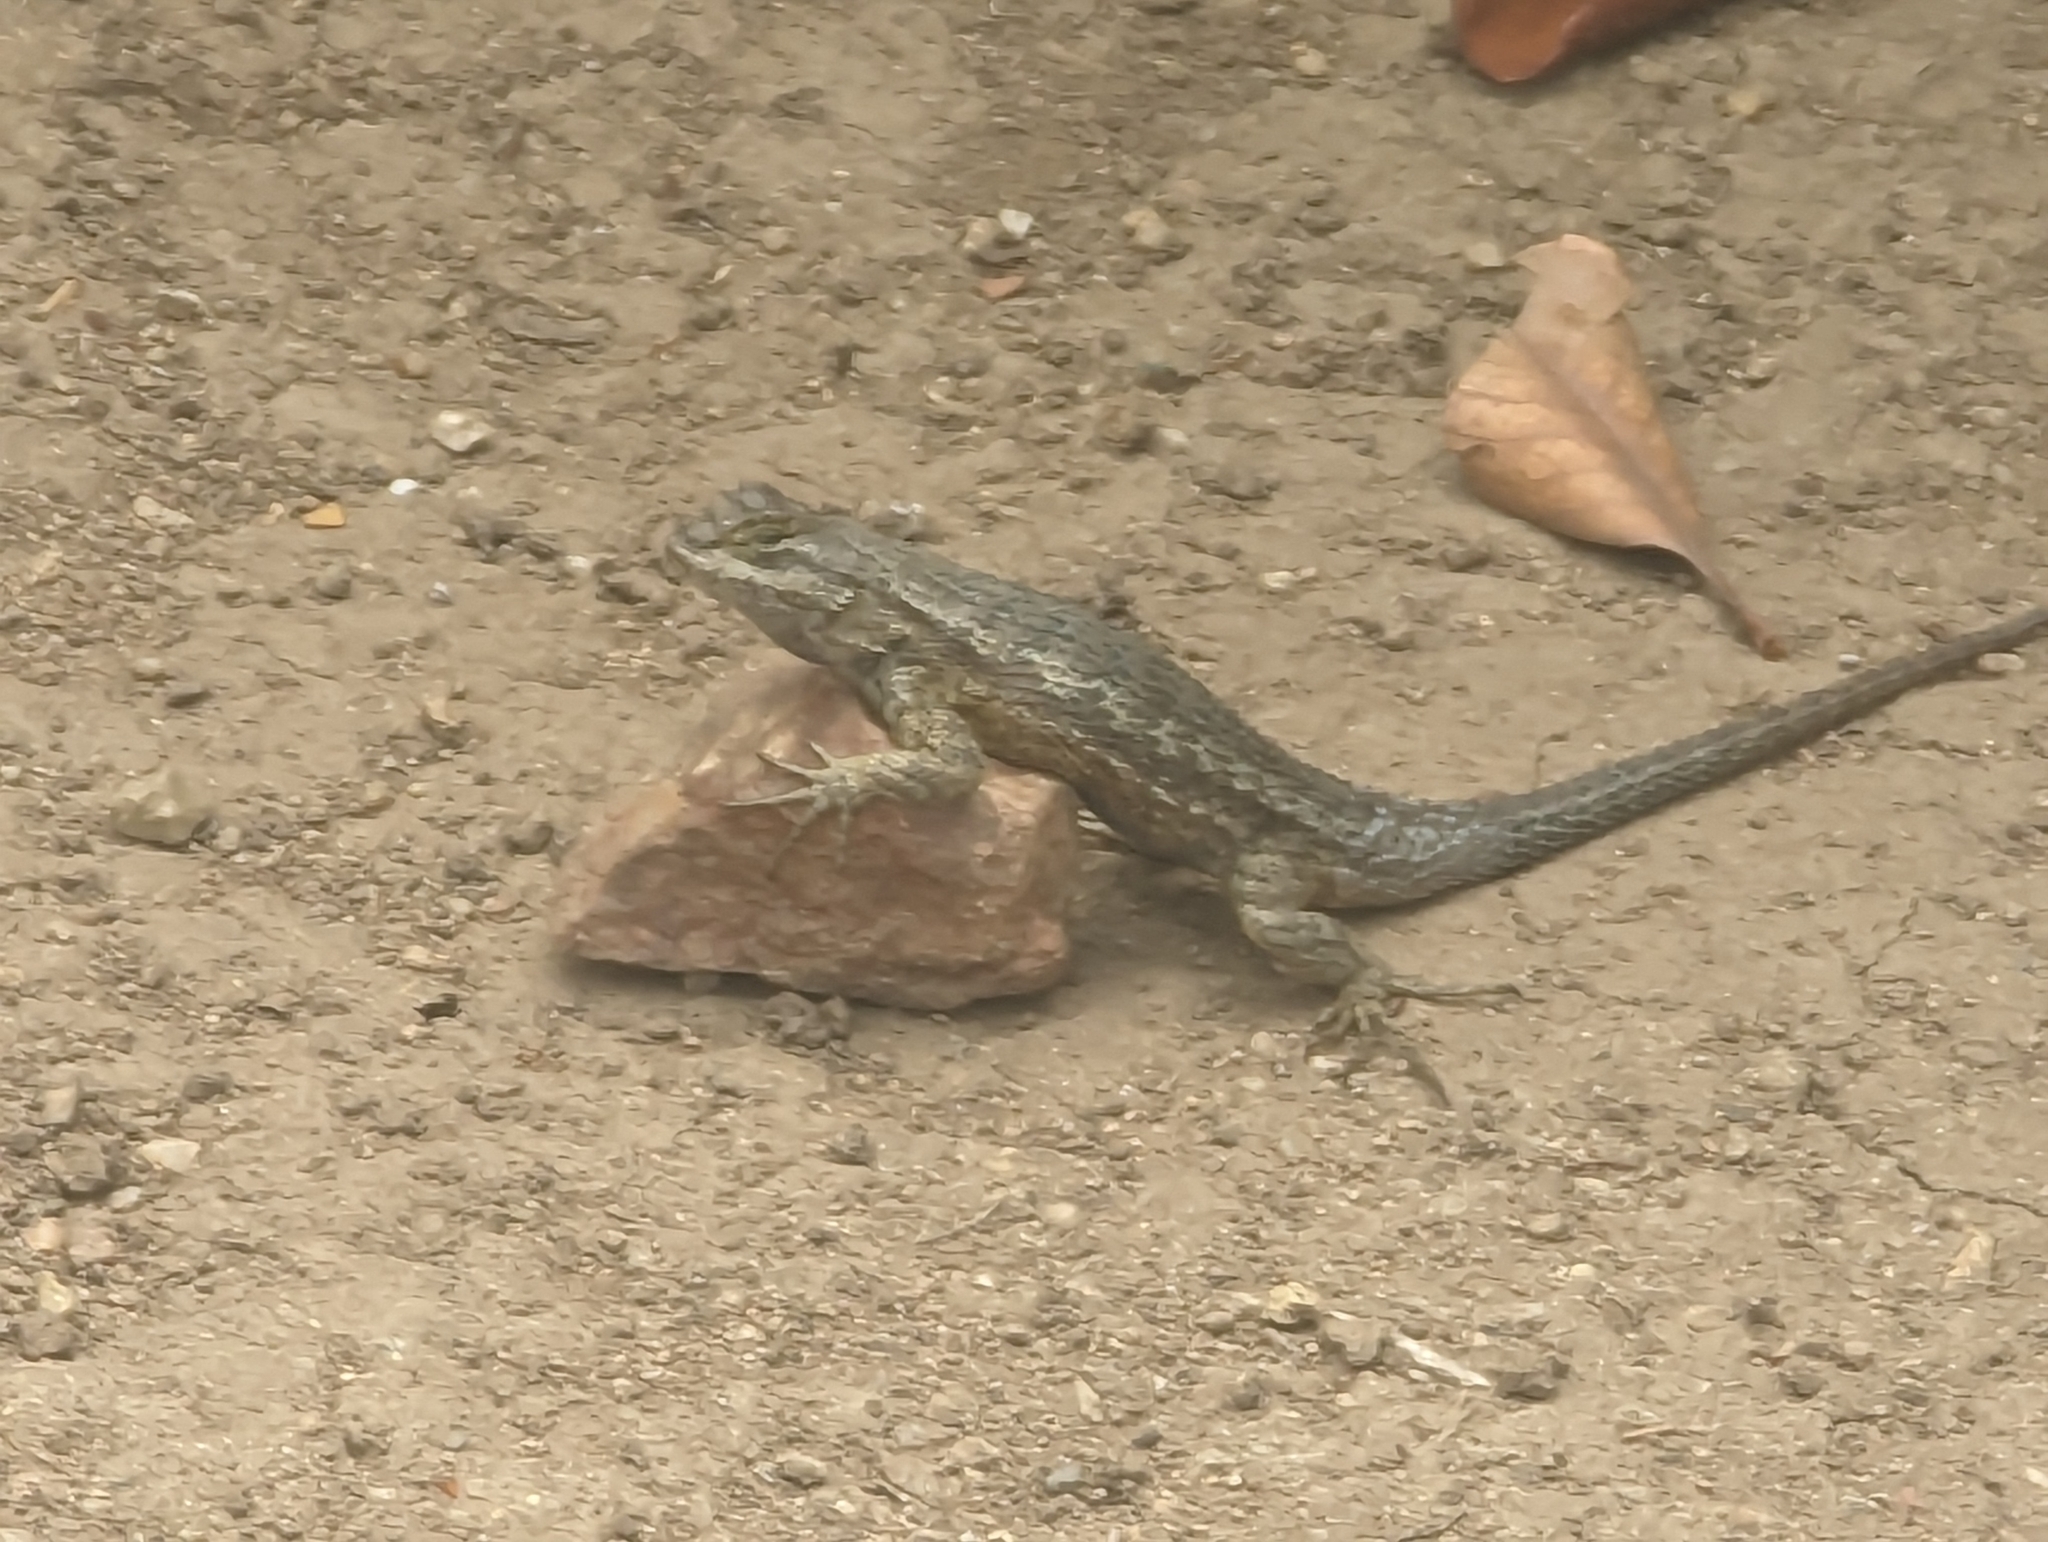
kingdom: Animalia
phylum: Chordata
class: Squamata
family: Phrynosomatidae
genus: Sceloporus
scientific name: Sceloporus occidentalis
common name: Western fence lizard
